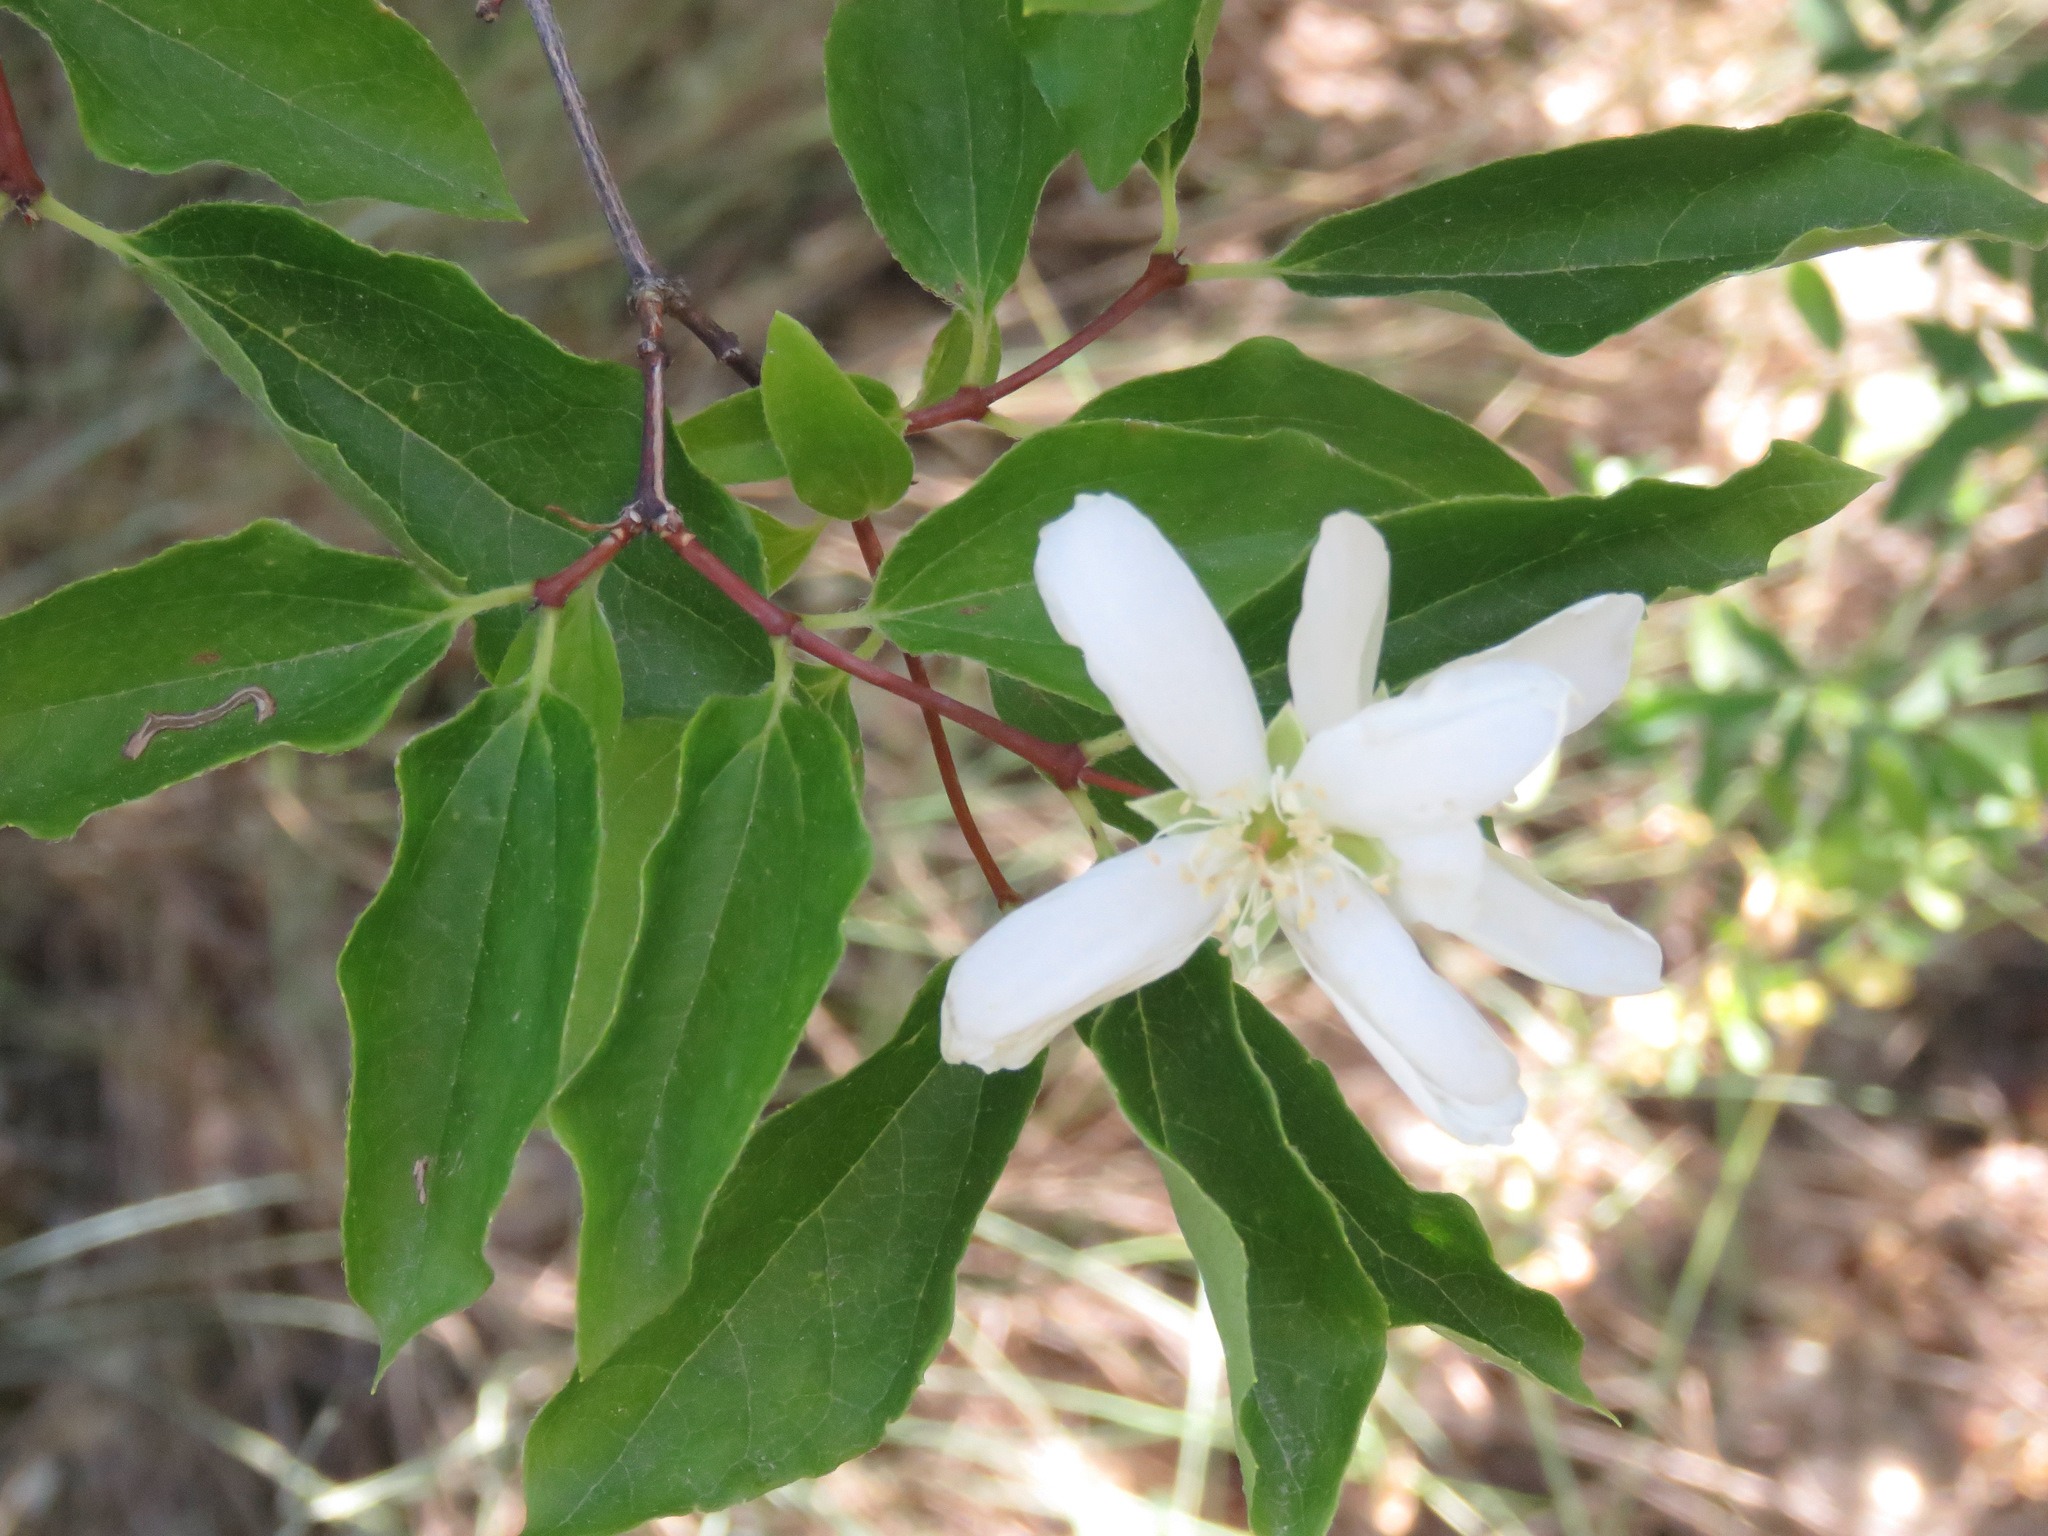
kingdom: Plantae
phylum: Tracheophyta
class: Magnoliopsida
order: Rosales
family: Rosaceae
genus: Amelanchier
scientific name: Amelanchier alnifolia
